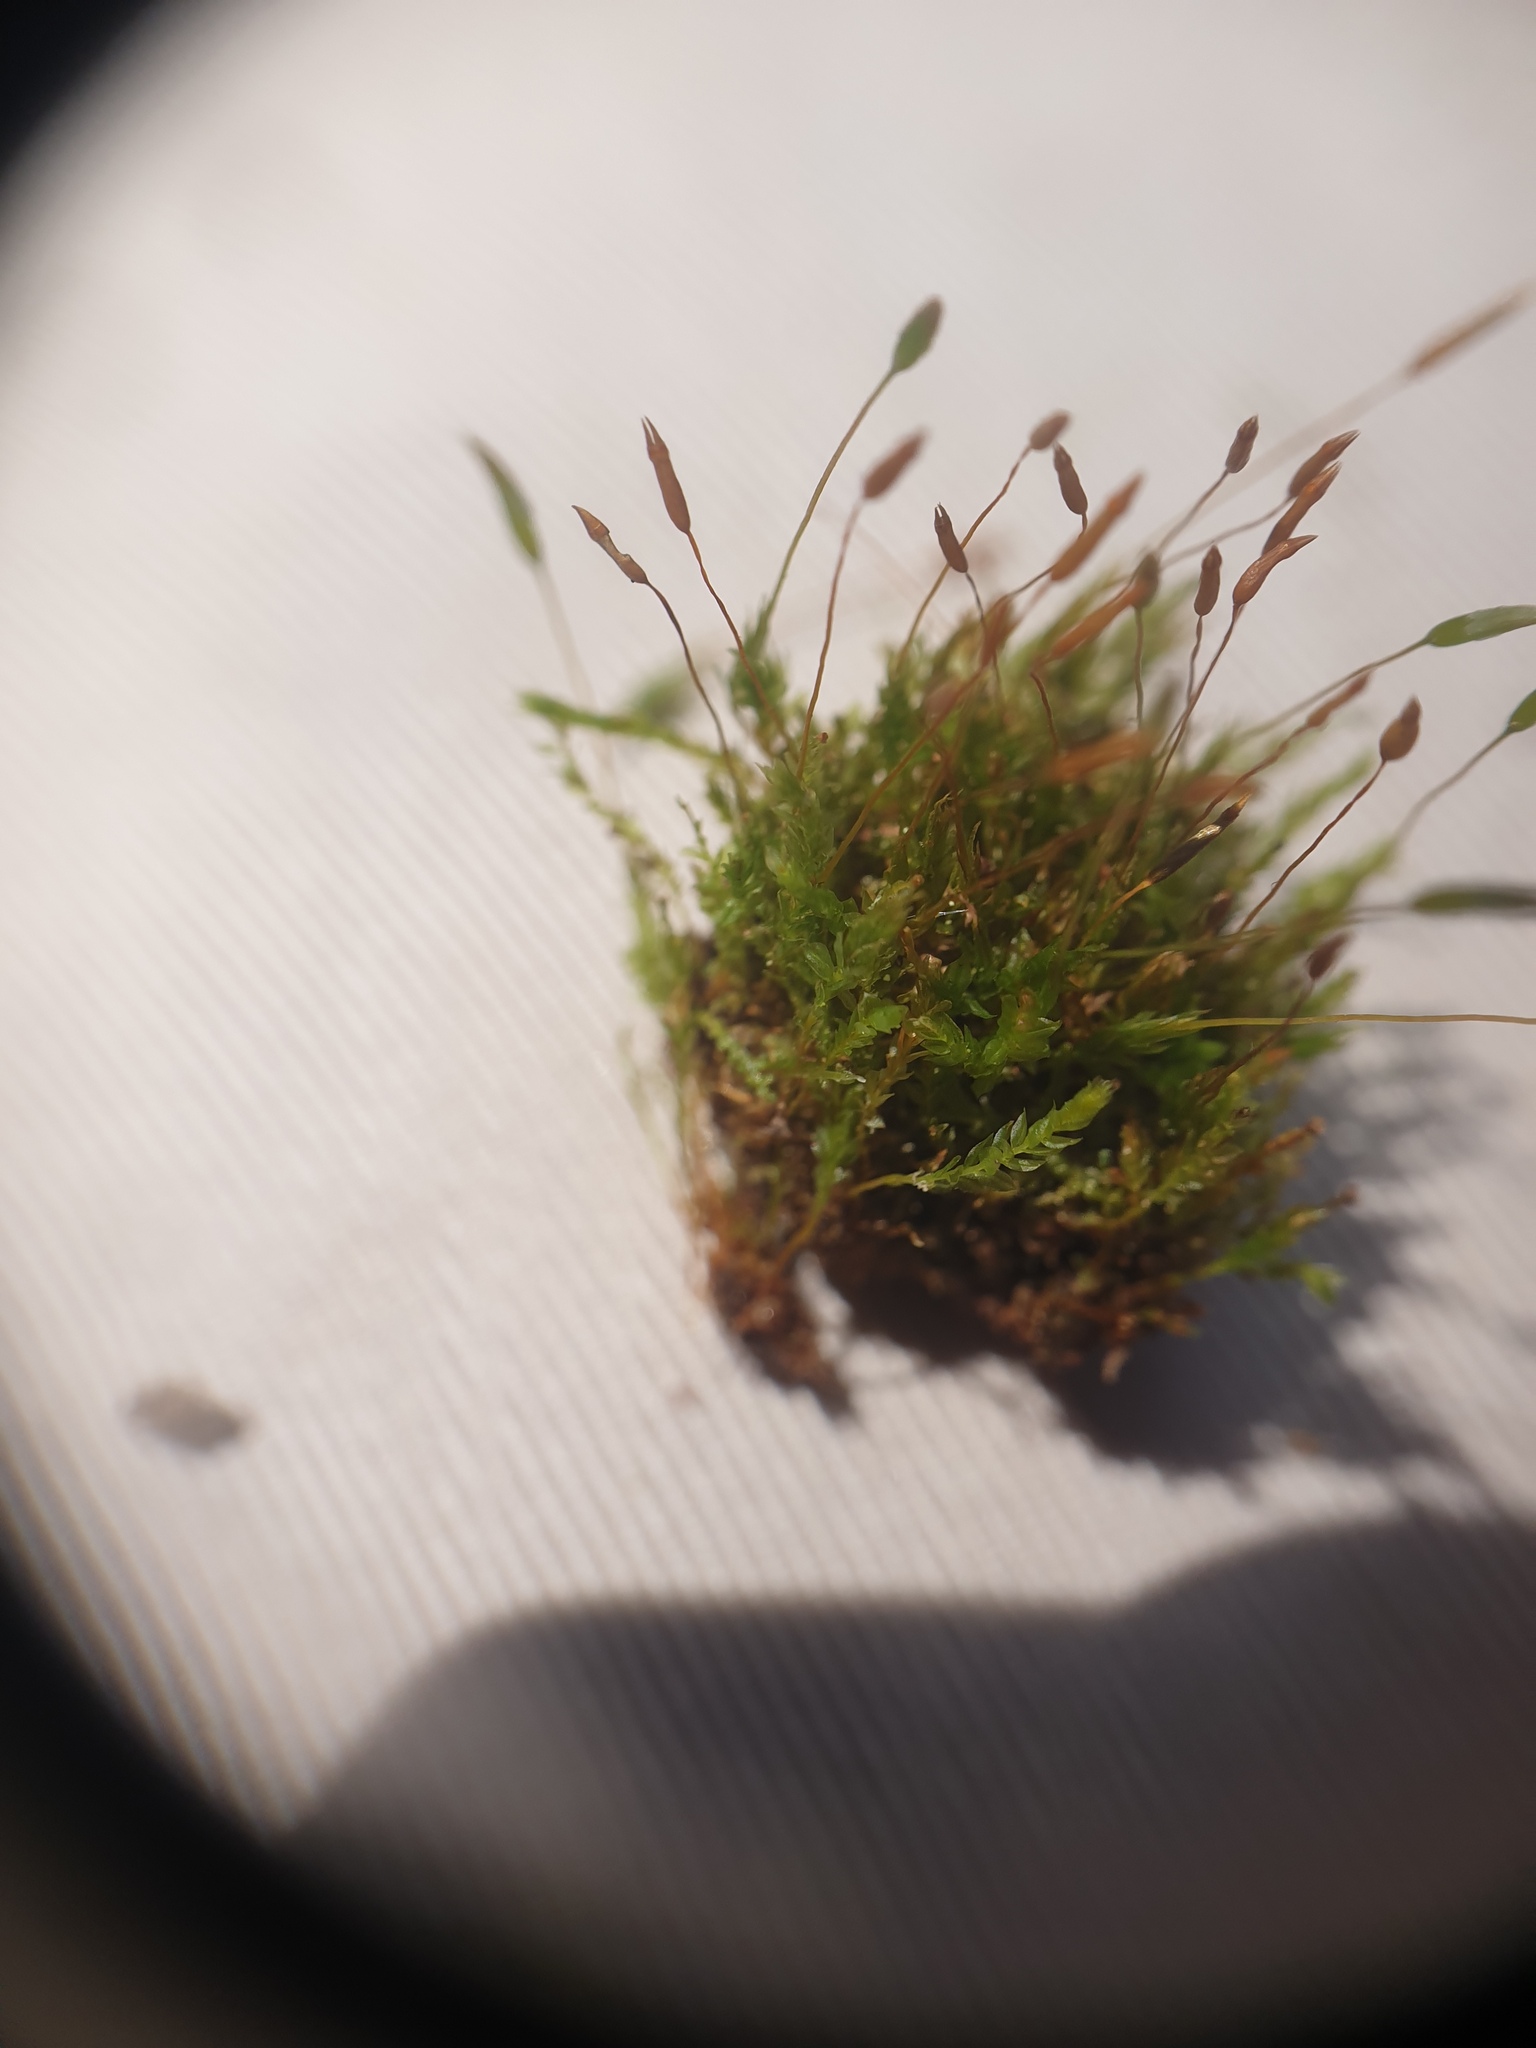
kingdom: Plantae
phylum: Bryophyta
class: Polytrichopsida
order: Tetraphidales
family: Tetraphidaceae
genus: Tetraphis
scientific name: Tetraphis pellucida
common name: Common four-toothed moss
